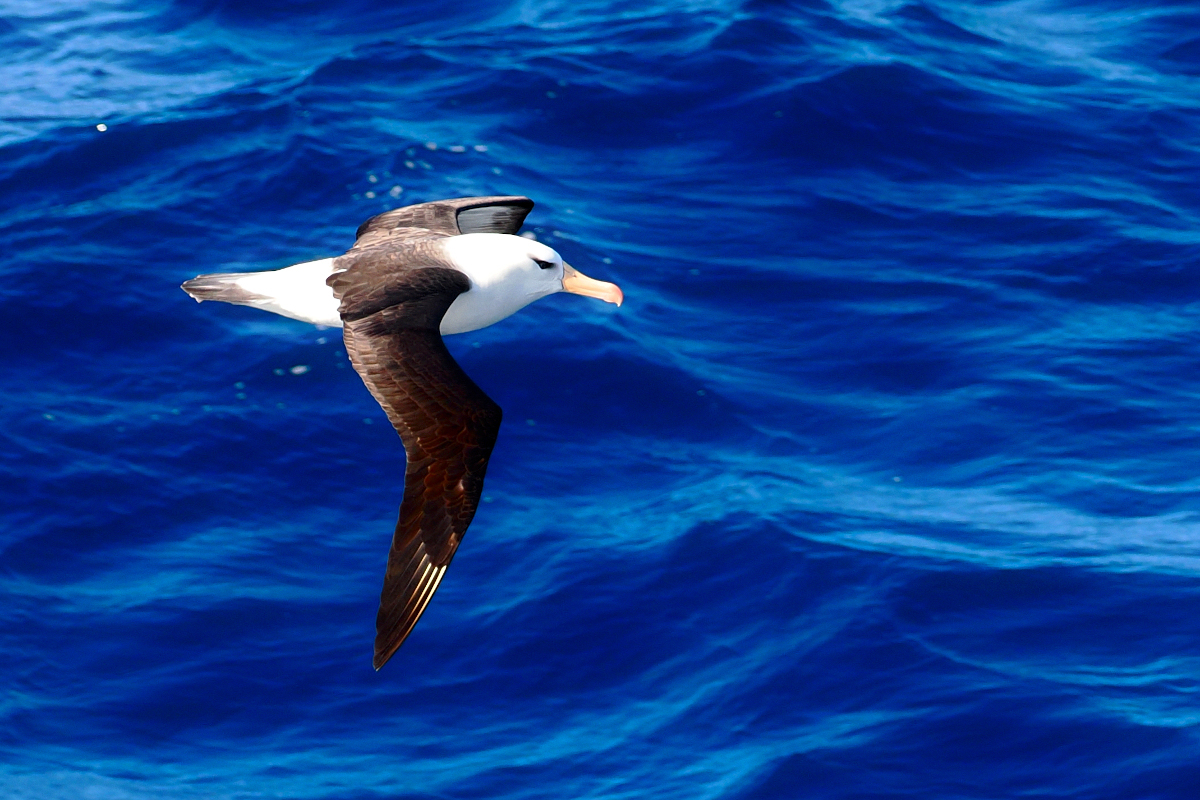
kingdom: Animalia
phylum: Chordata
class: Aves
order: Procellariiformes
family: Diomedeidae
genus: Thalassarche
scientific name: Thalassarche melanophris
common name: Black-browed albatross
